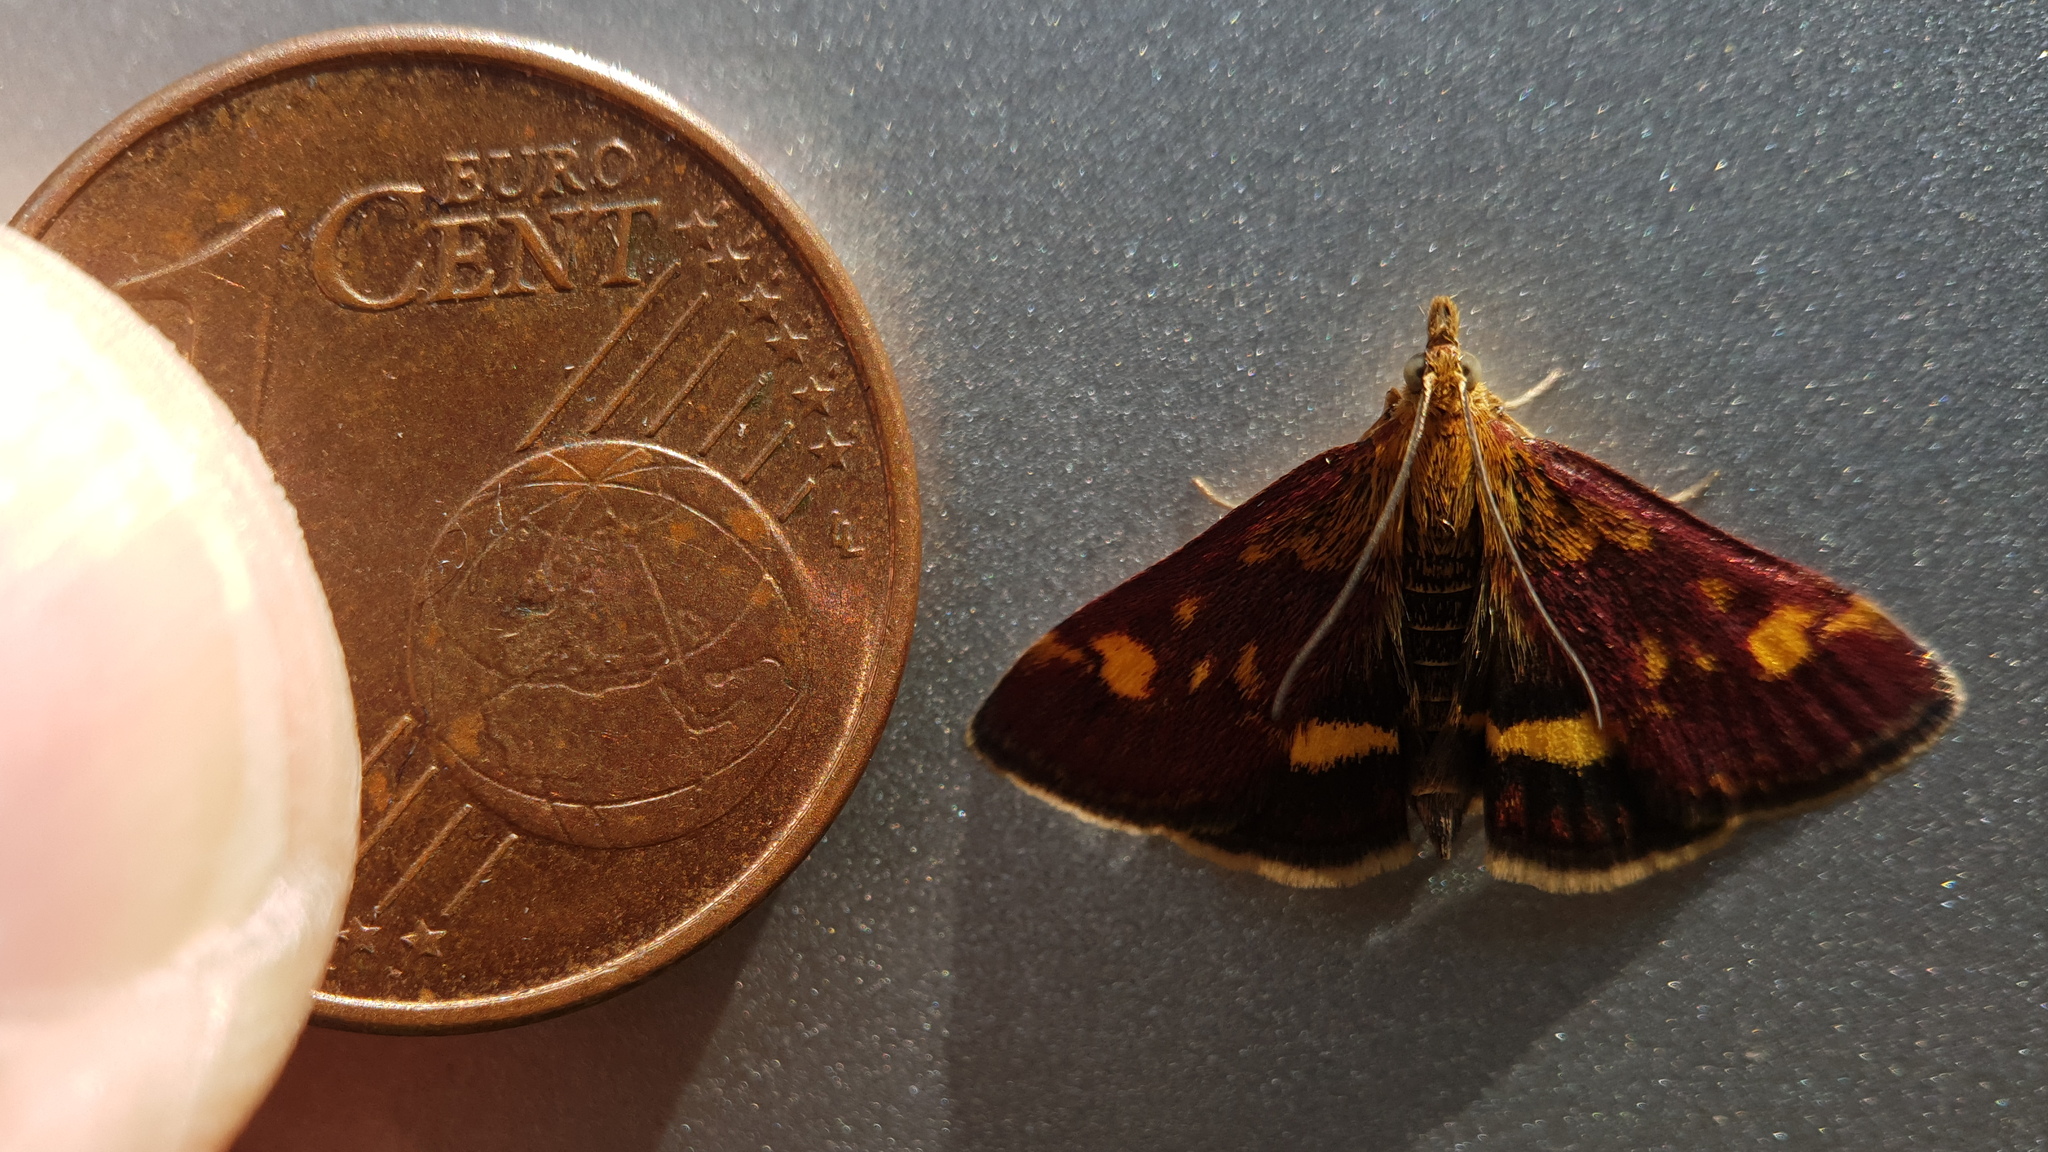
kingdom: Animalia
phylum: Arthropoda
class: Insecta
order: Lepidoptera
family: Crambidae
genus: Pyrausta
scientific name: Pyrausta aurata
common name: Small purple & gold
